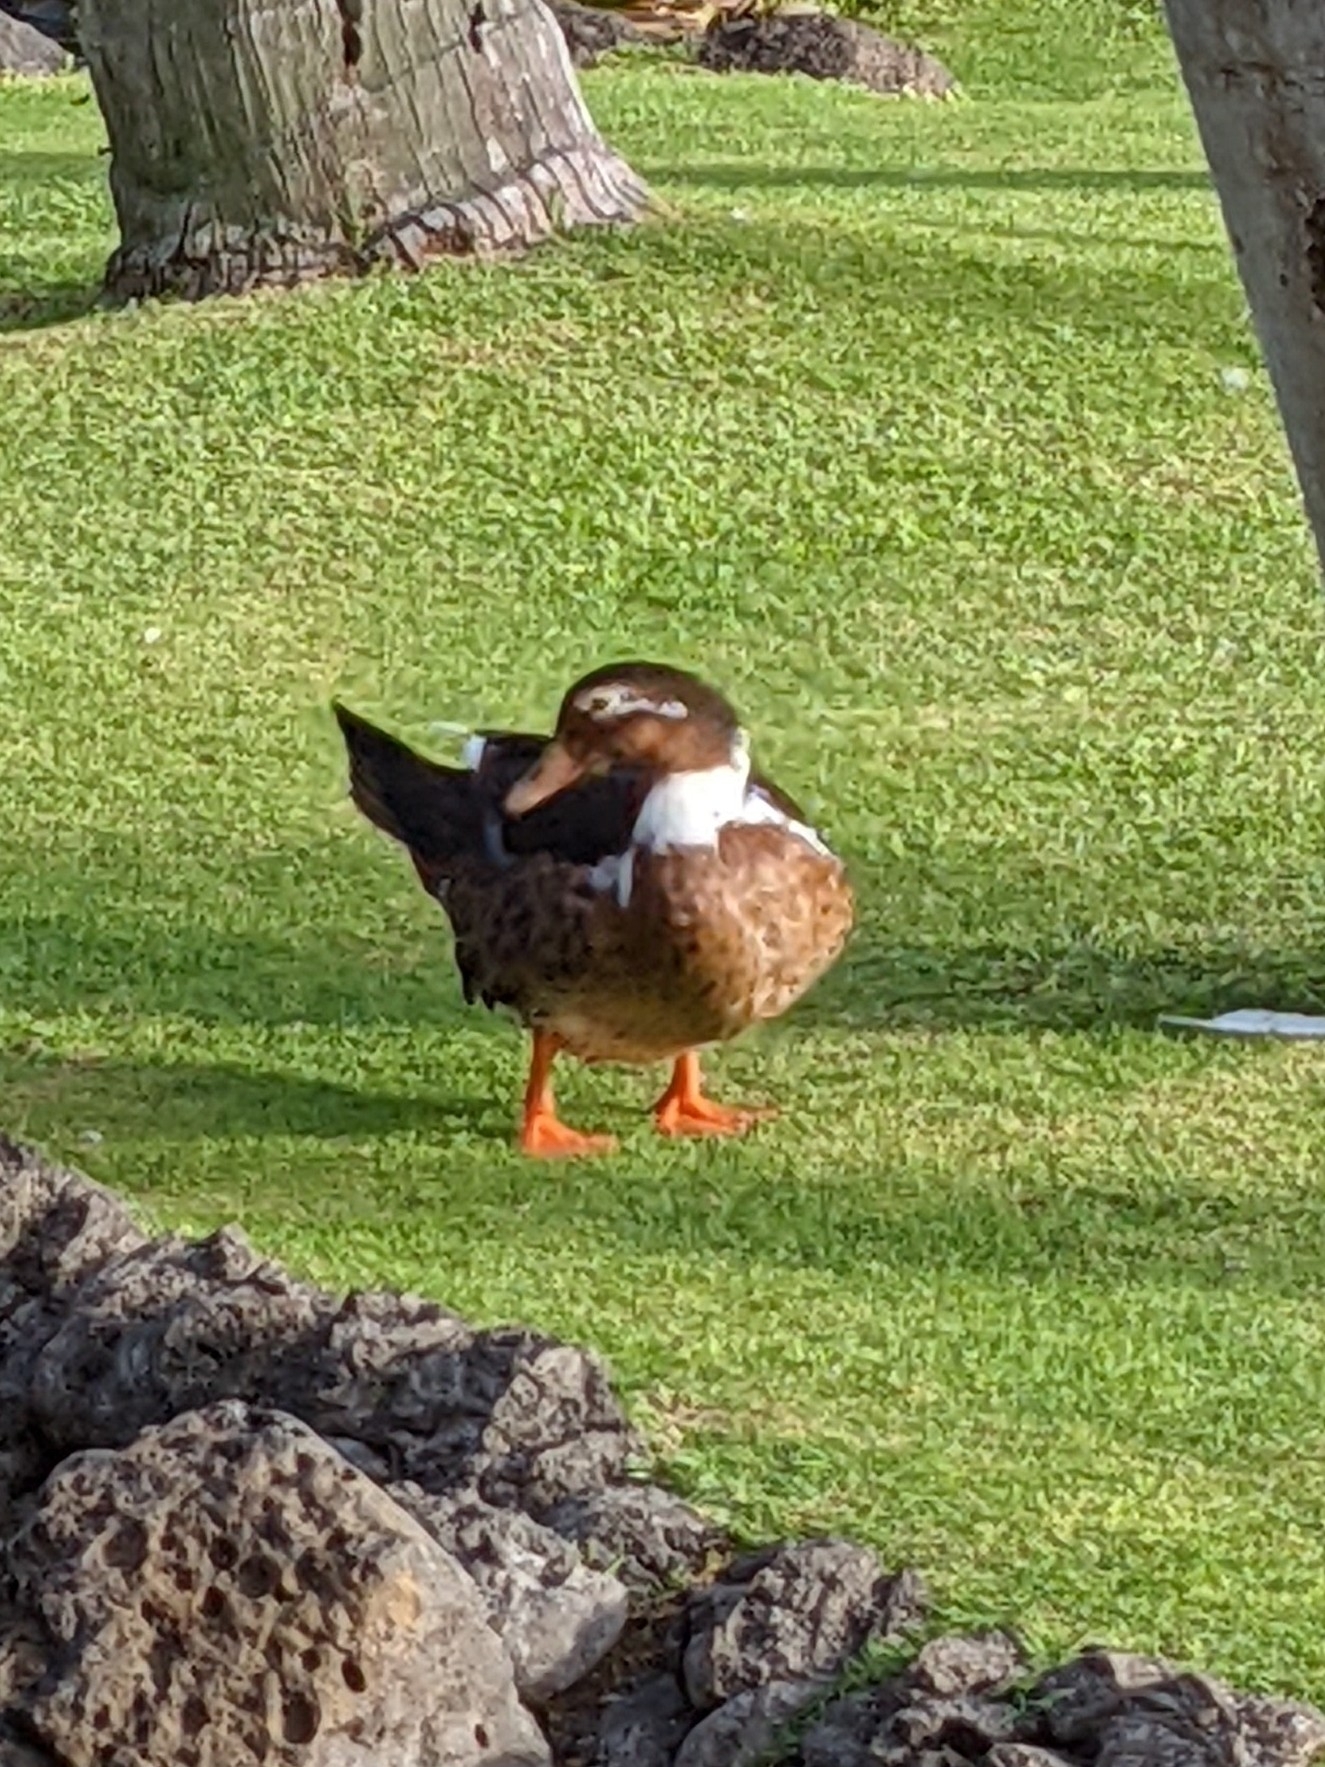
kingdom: Animalia
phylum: Chordata
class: Aves
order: Anseriformes
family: Anatidae
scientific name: Anatidae
